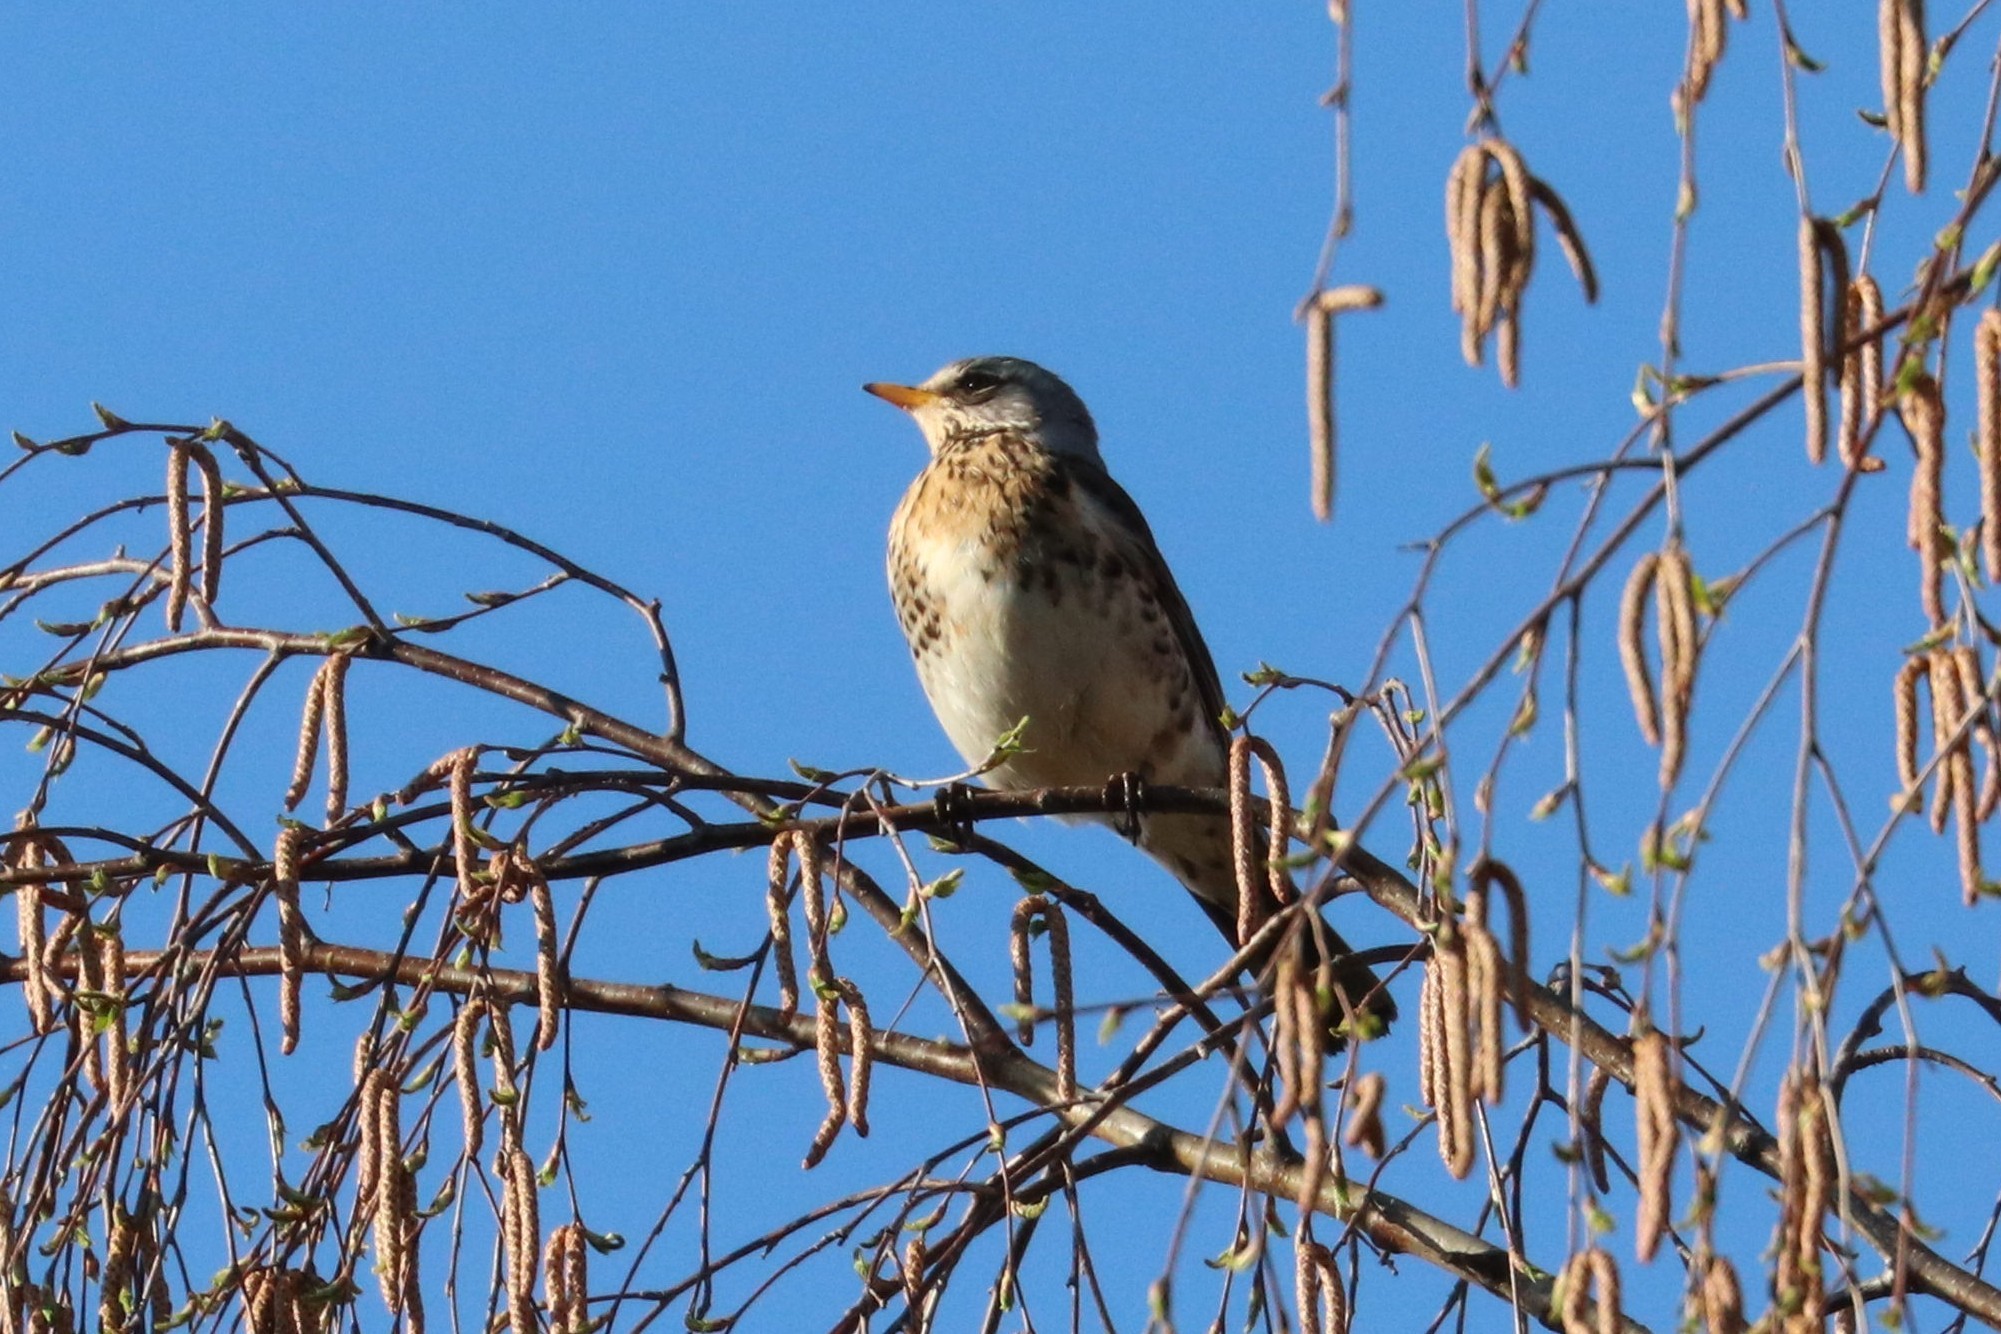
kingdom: Animalia
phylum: Chordata
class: Aves
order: Passeriformes
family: Turdidae
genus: Turdus
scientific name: Turdus pilaris
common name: Fieldfare
